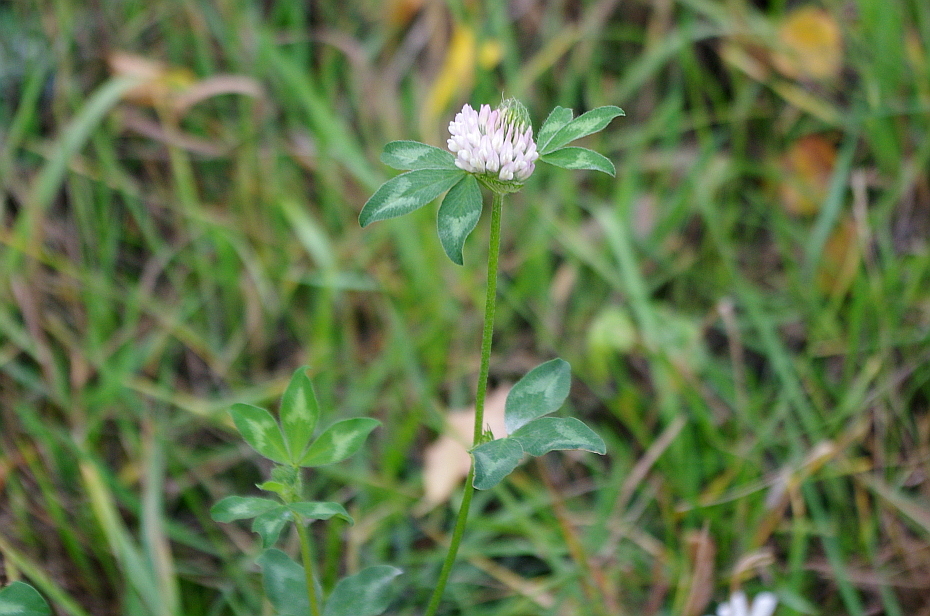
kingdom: Plantae
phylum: Tracheophyta
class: Magnoliopsida
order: Fabales
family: Fabaceae
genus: Trifolium
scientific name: Trifolium pratense
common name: Red clover
